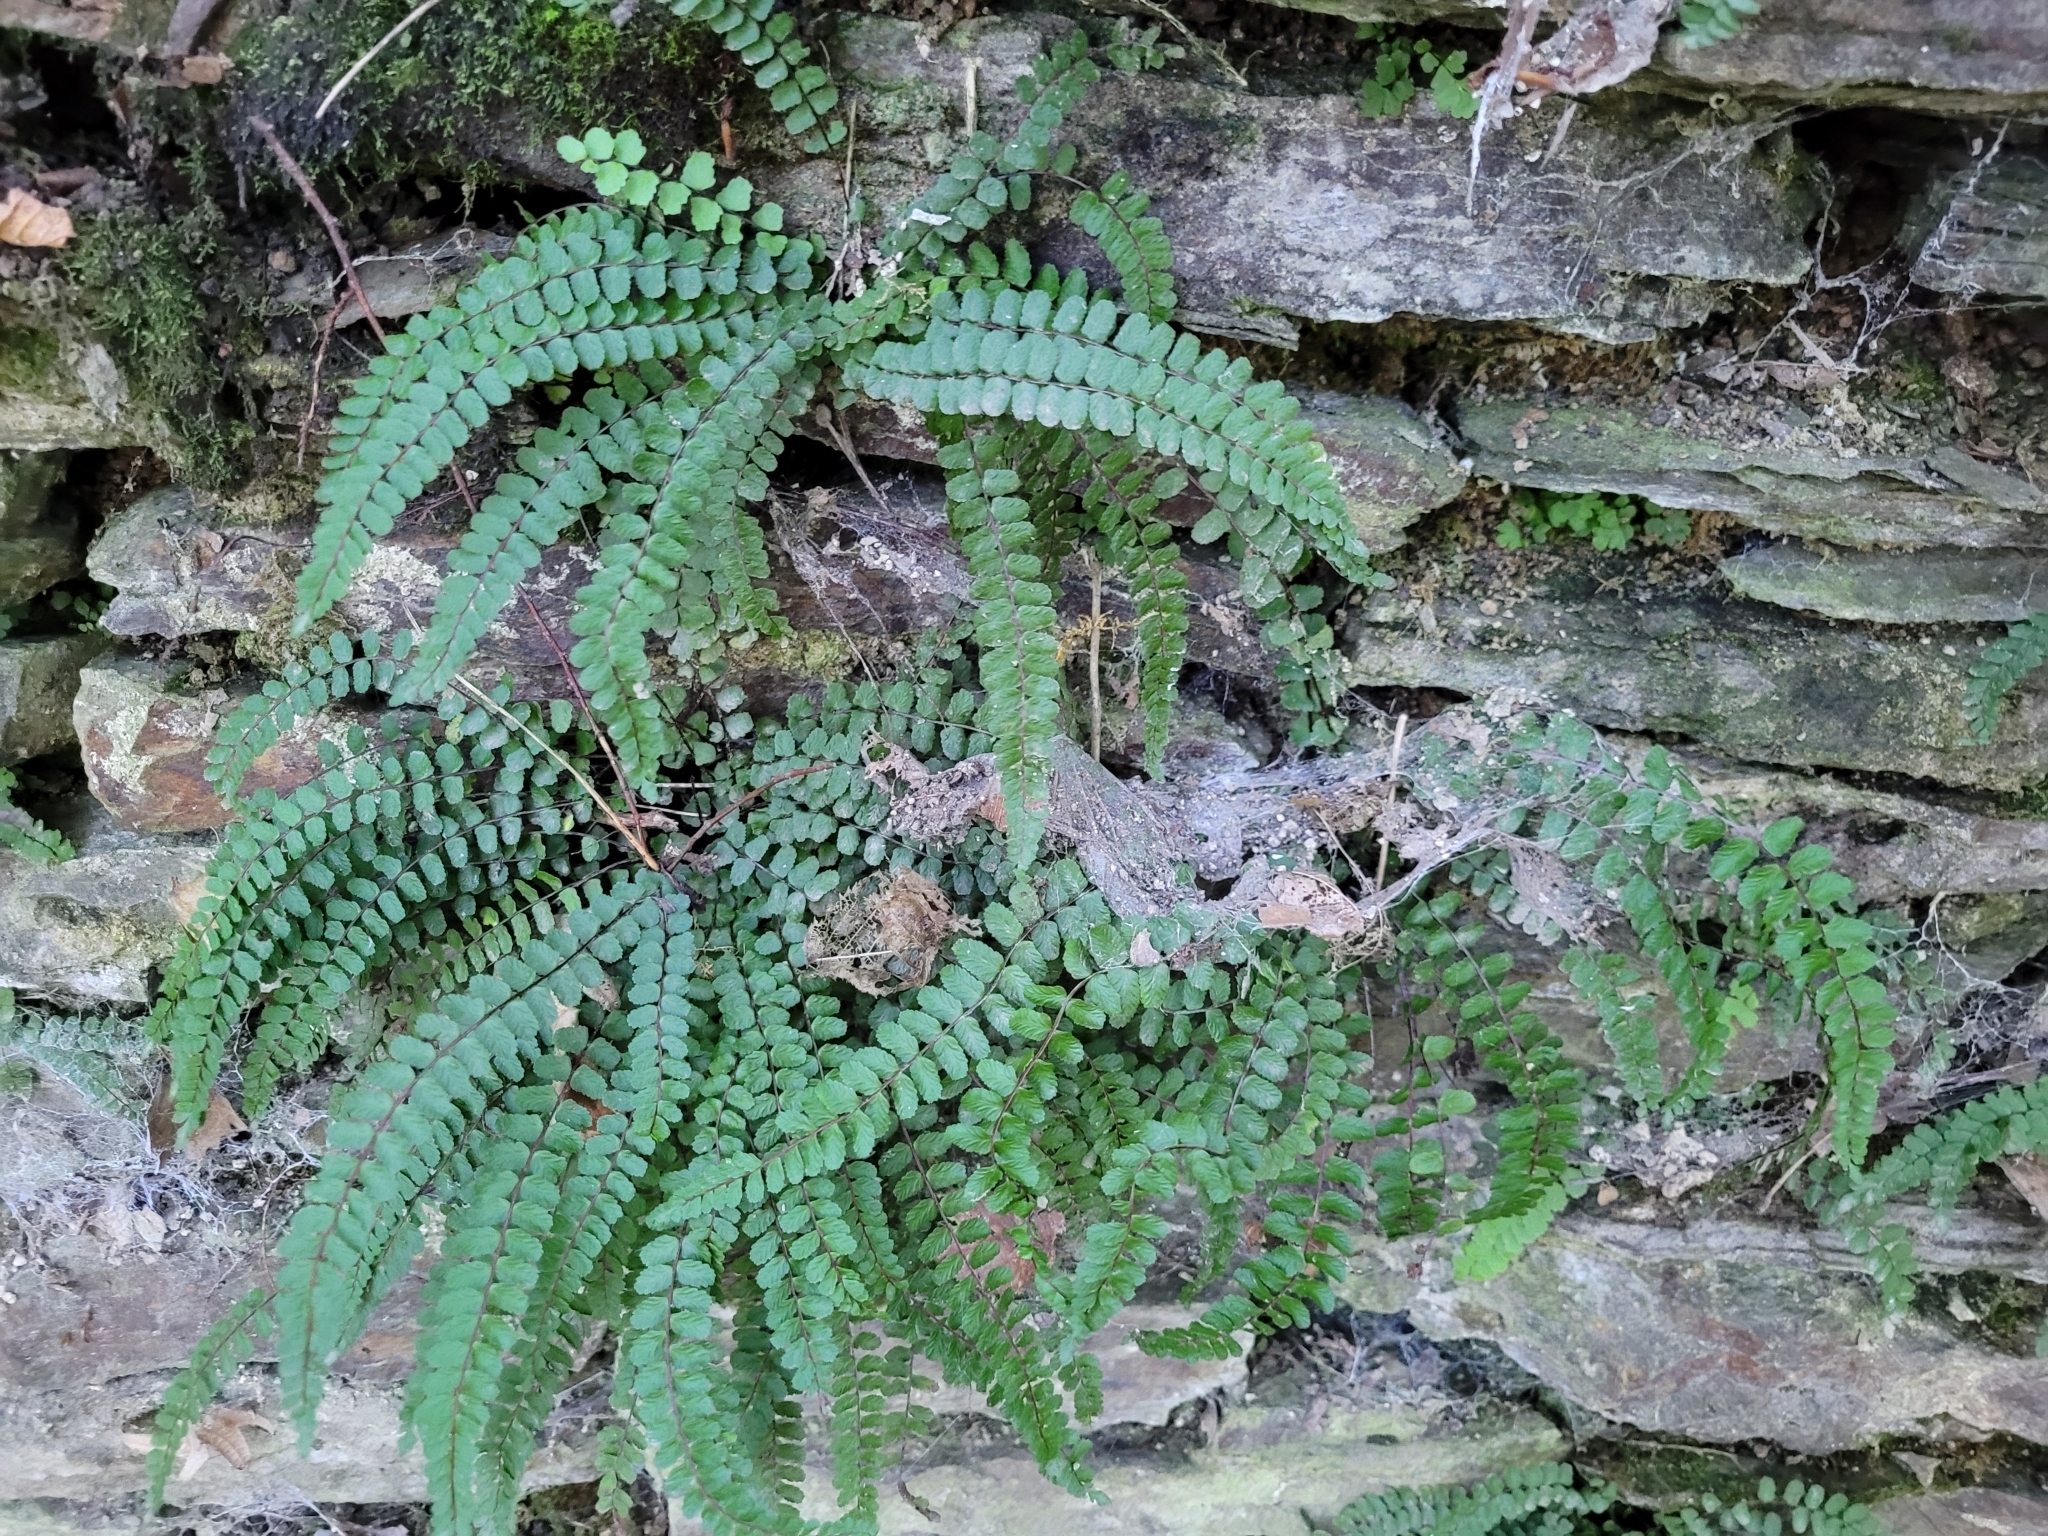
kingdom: Plantae
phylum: Tracheophyta
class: Polypodiopsida
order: Polypodiales
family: Aspleniaceae
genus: Asplenium
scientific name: Asplenium trichomanes
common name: Maidenhair spleenwort
